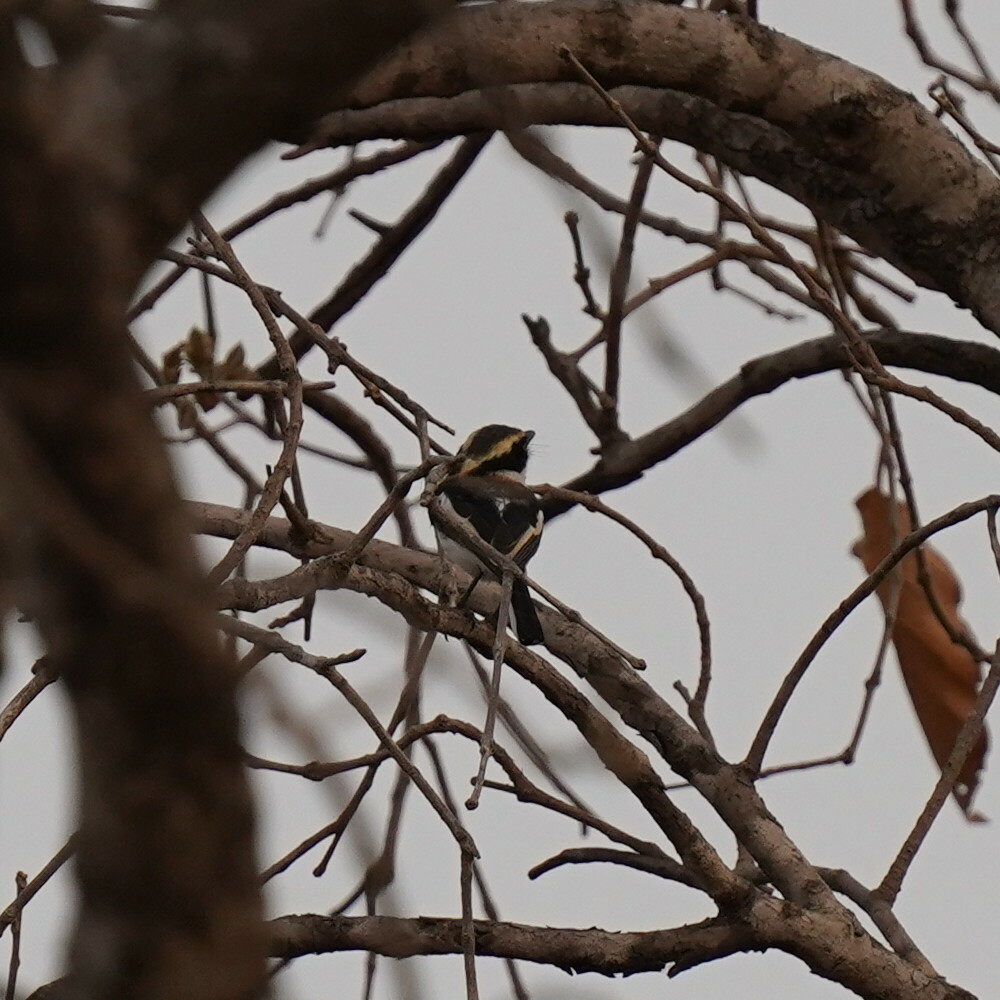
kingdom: Animalia
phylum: Chordata
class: Aves
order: Passeriformes
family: Platysteiridae
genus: Batis
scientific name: Batis senegalensis
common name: Senegal batis
